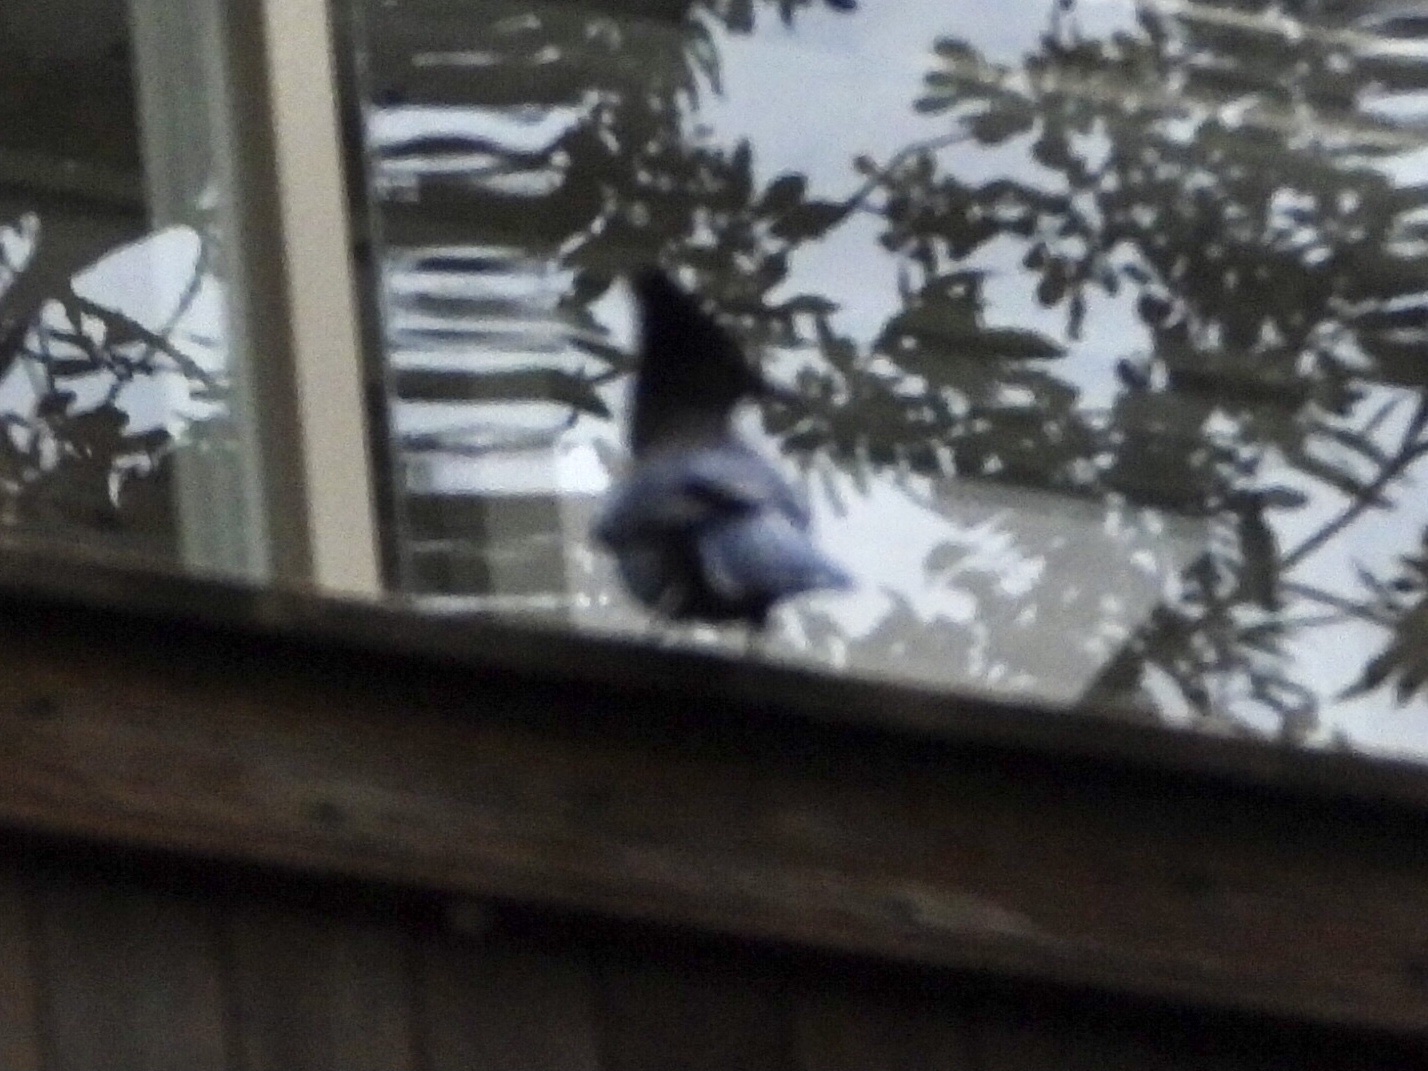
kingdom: Animalia
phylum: Chordata
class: Aves
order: Passeriformes
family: Corvidae
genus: Cyanocitta
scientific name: Cyanocitta stelleri
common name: Steller's jay
